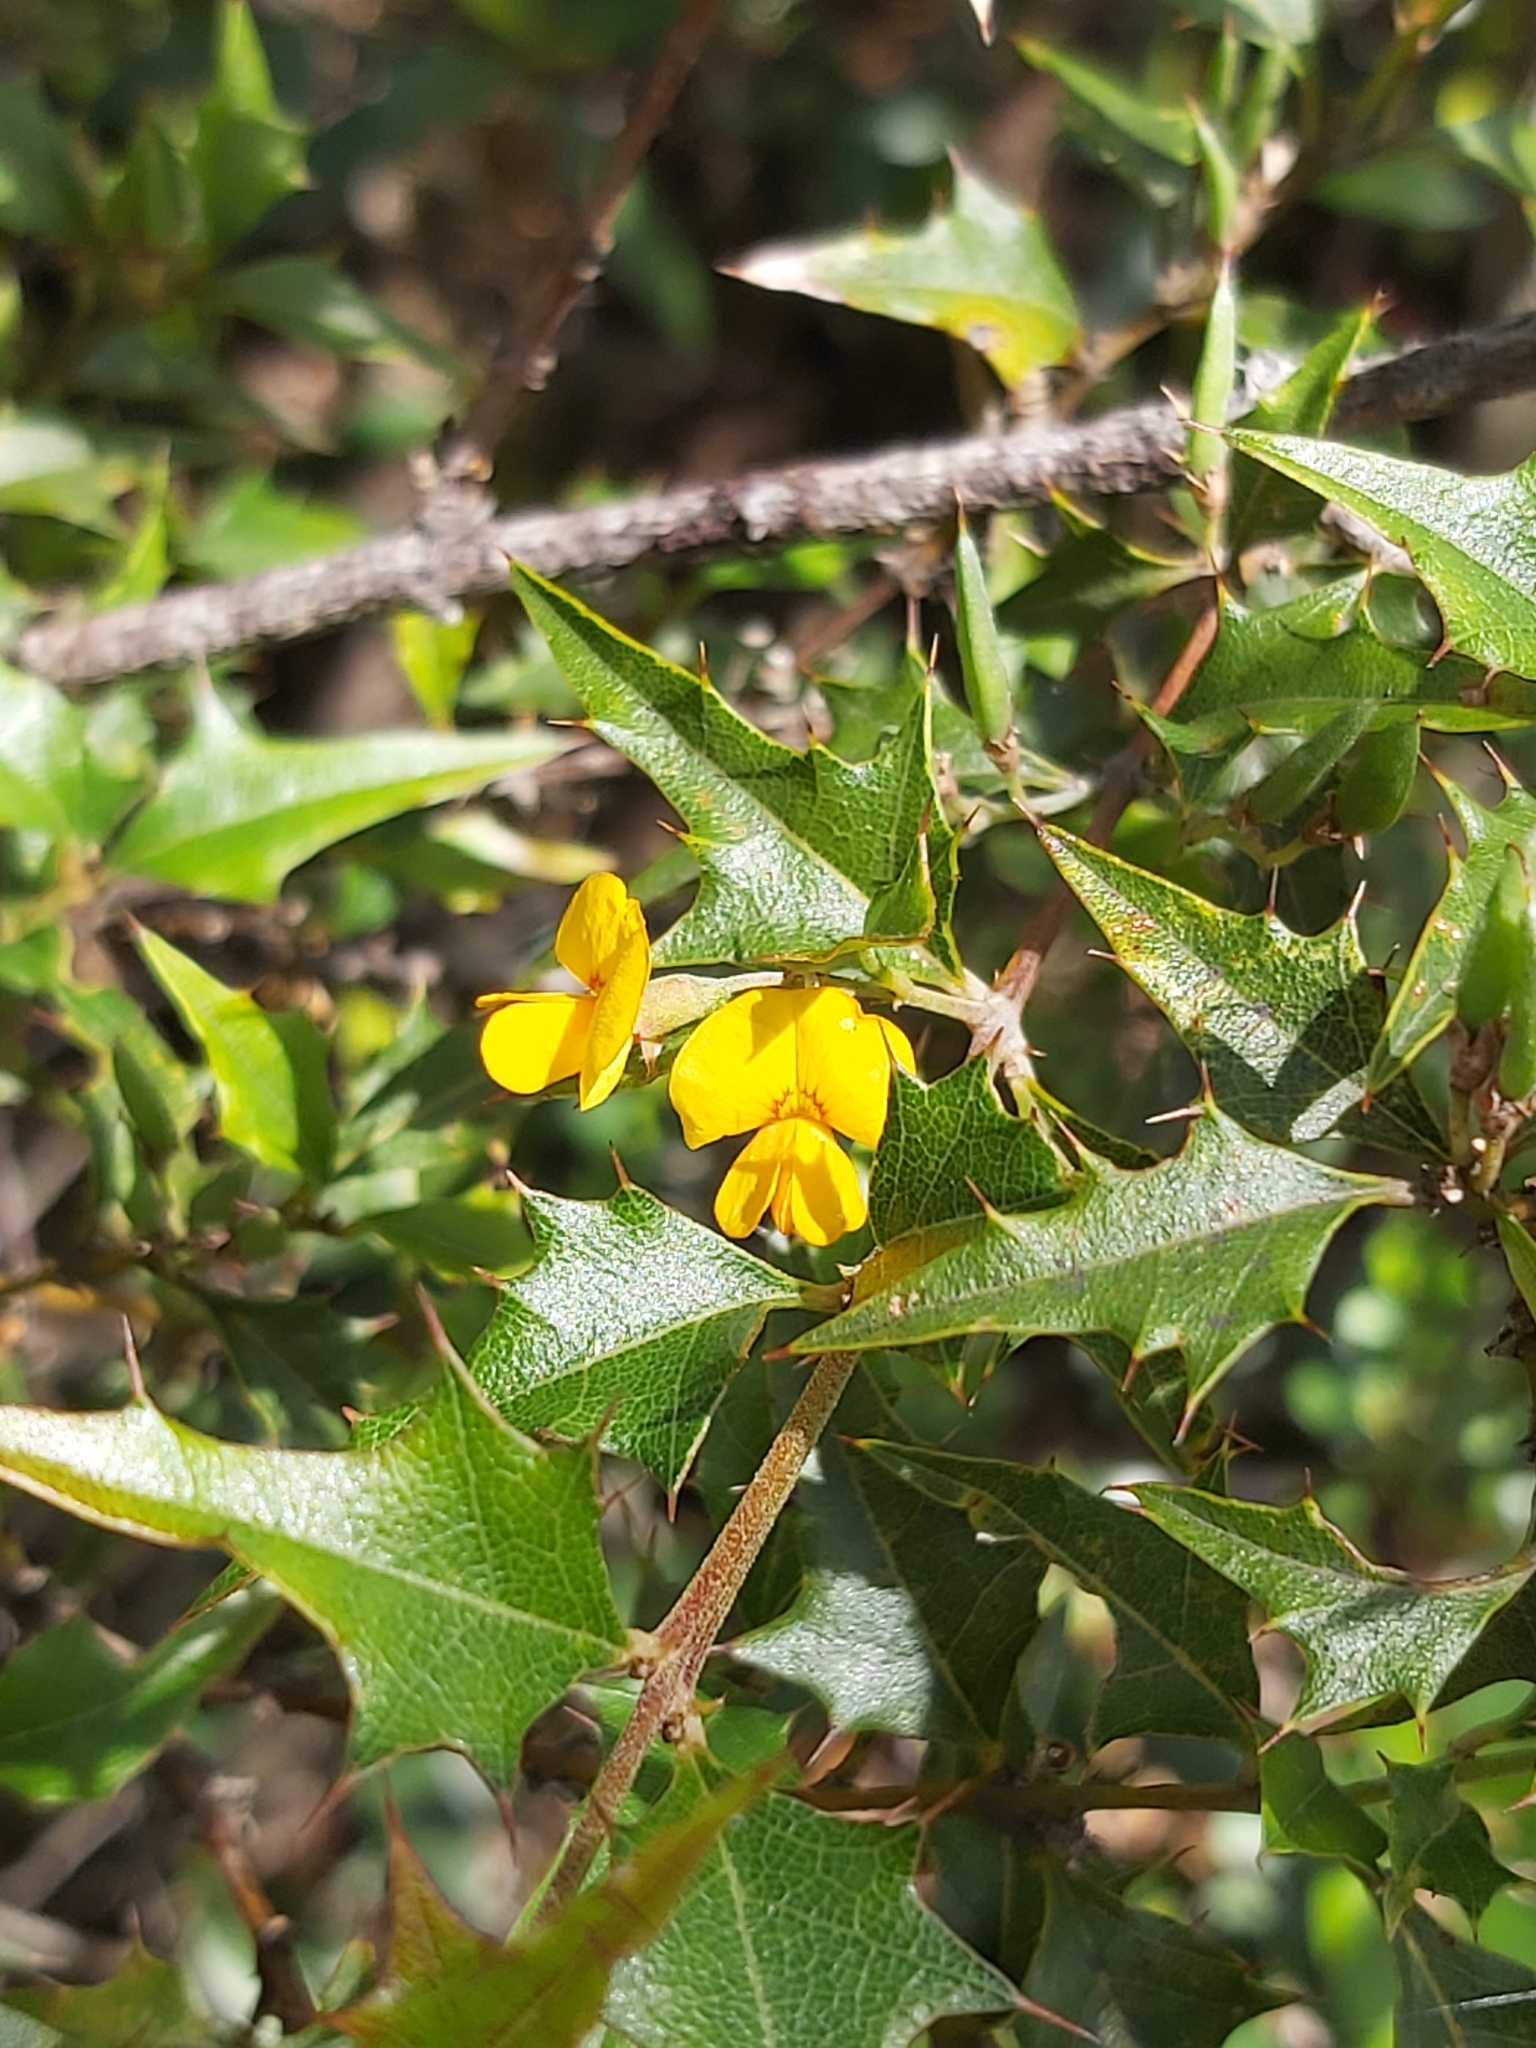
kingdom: Plantae
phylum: Tracheophyta
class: Magnoliopsida
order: Fabales
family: Fabaceae
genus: Podolobium
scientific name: Podolobium ilicifolium
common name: Native holly
